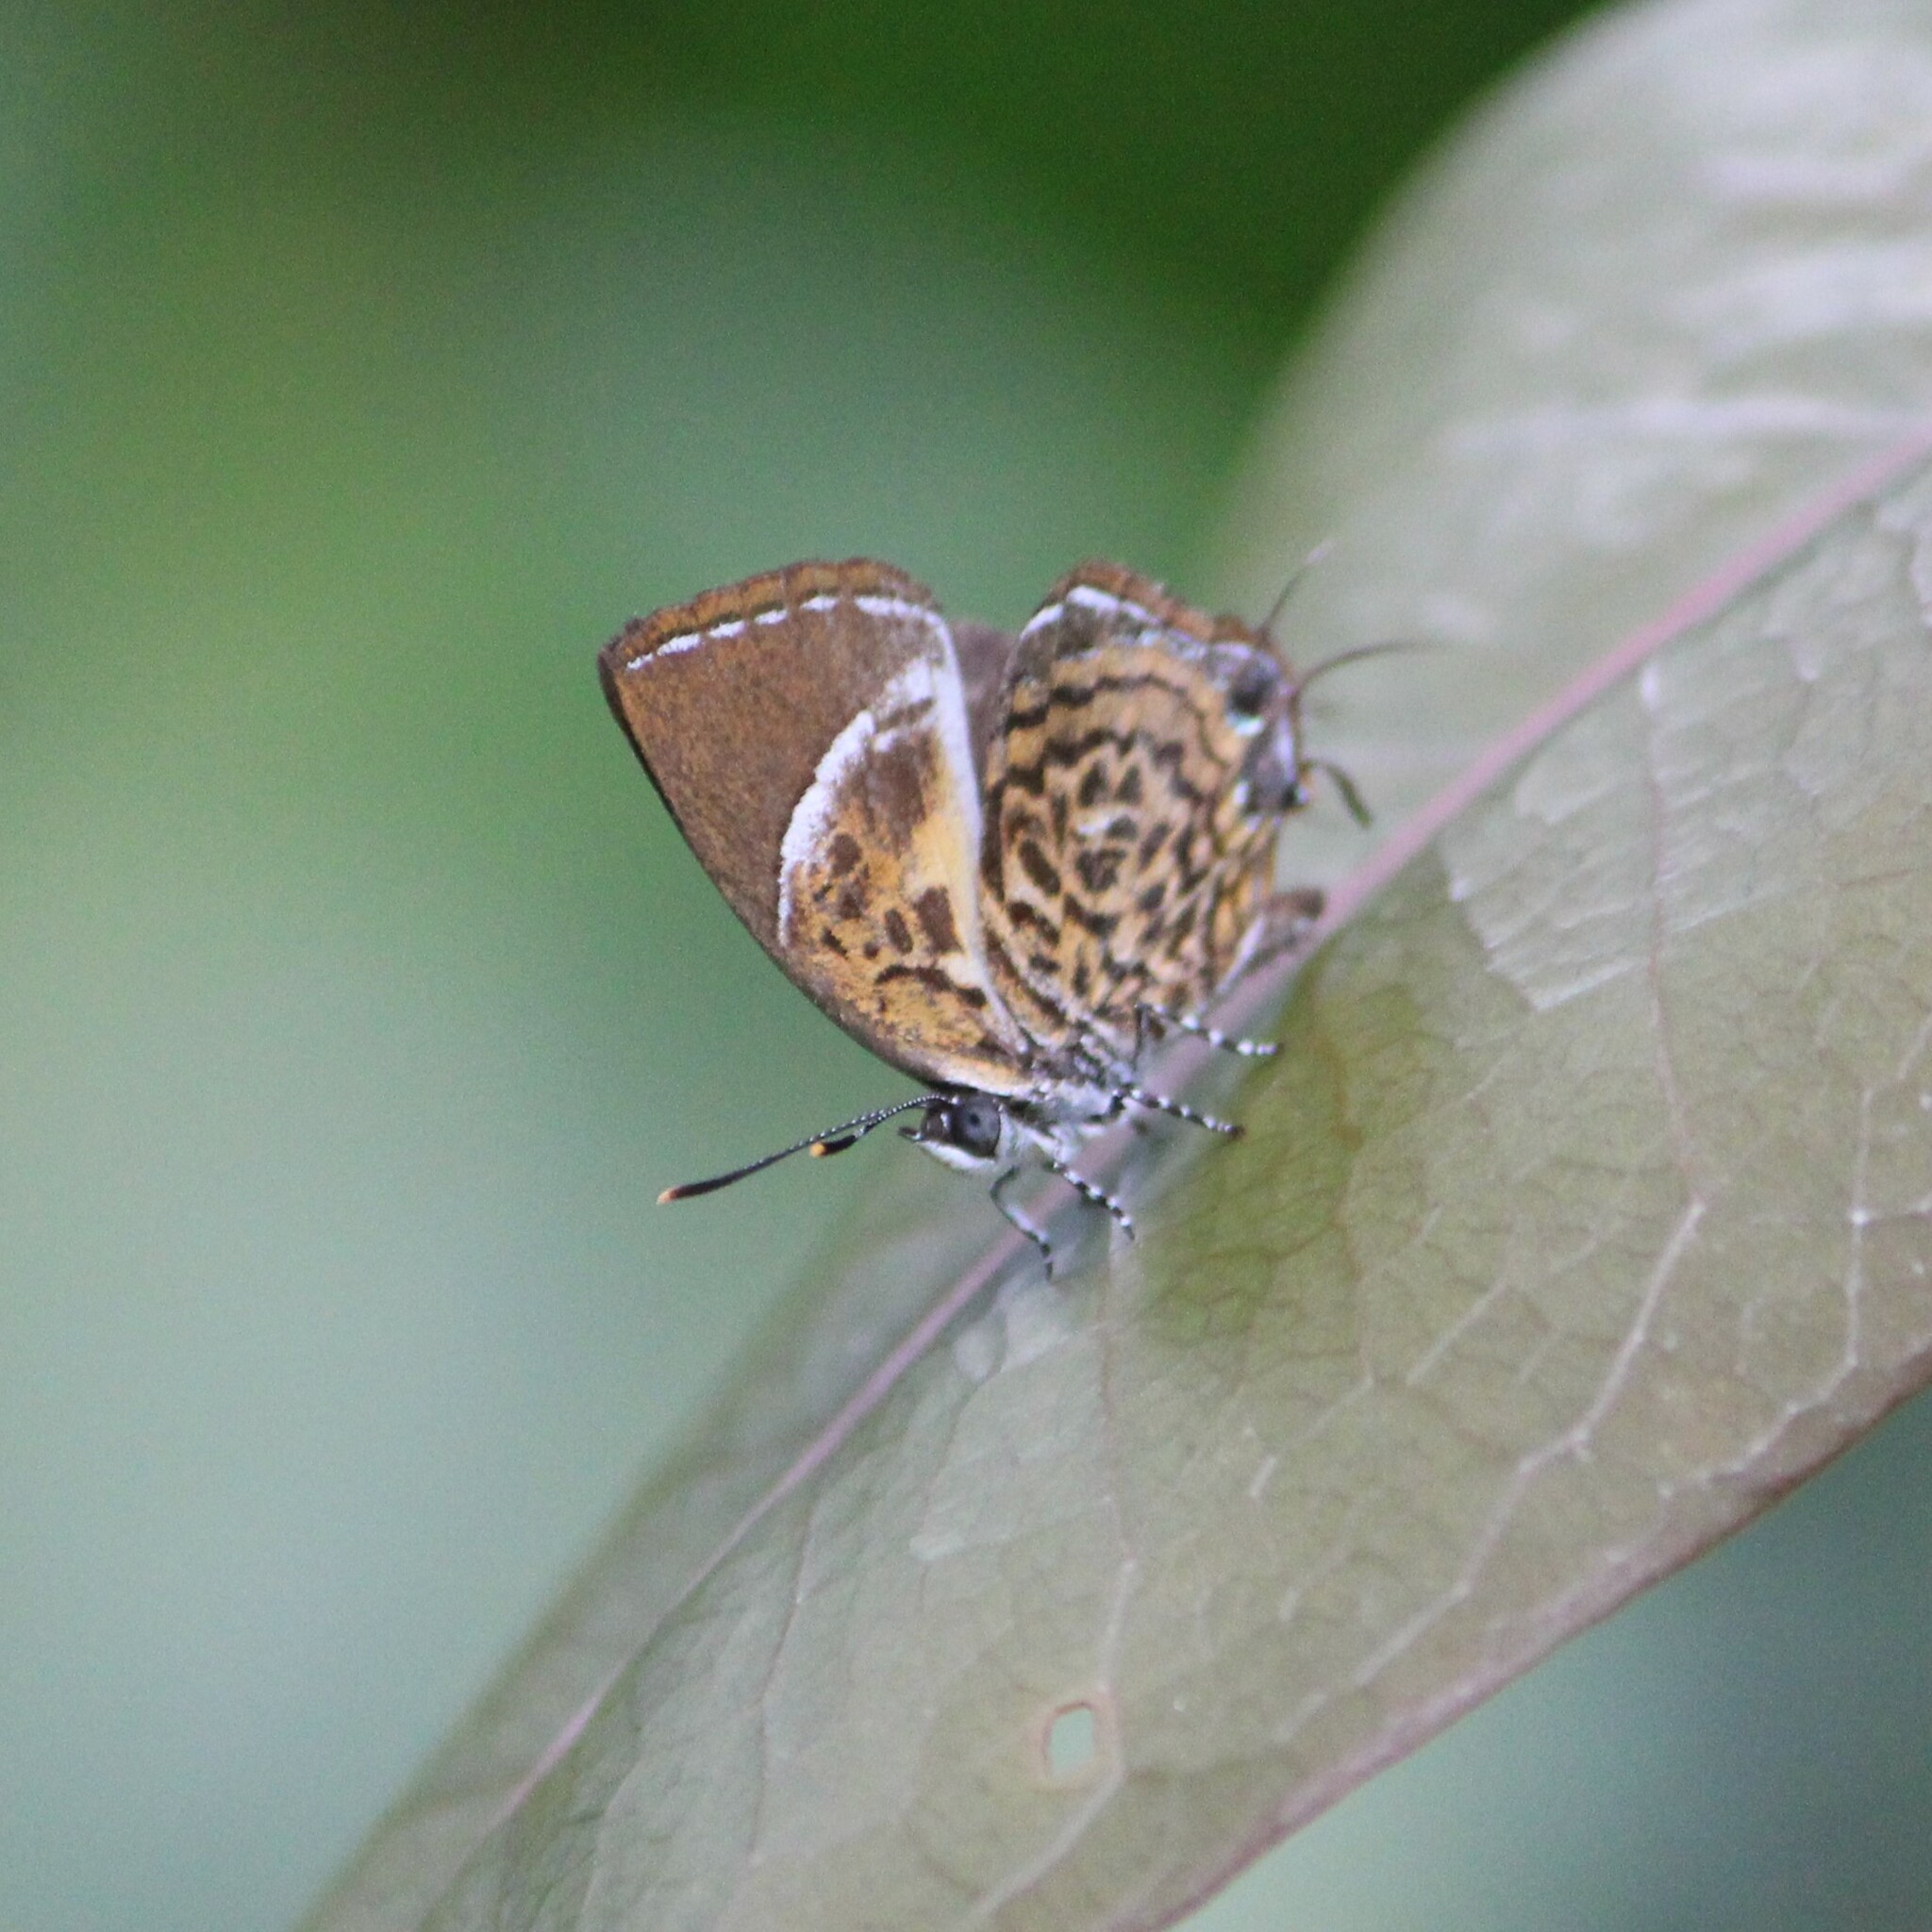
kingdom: Animalia
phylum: Arthropoda
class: Insecta
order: Lepidoptera
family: Lycaenidae
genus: Rathinda
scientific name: Rathinda amor
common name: Monkey puzzle
